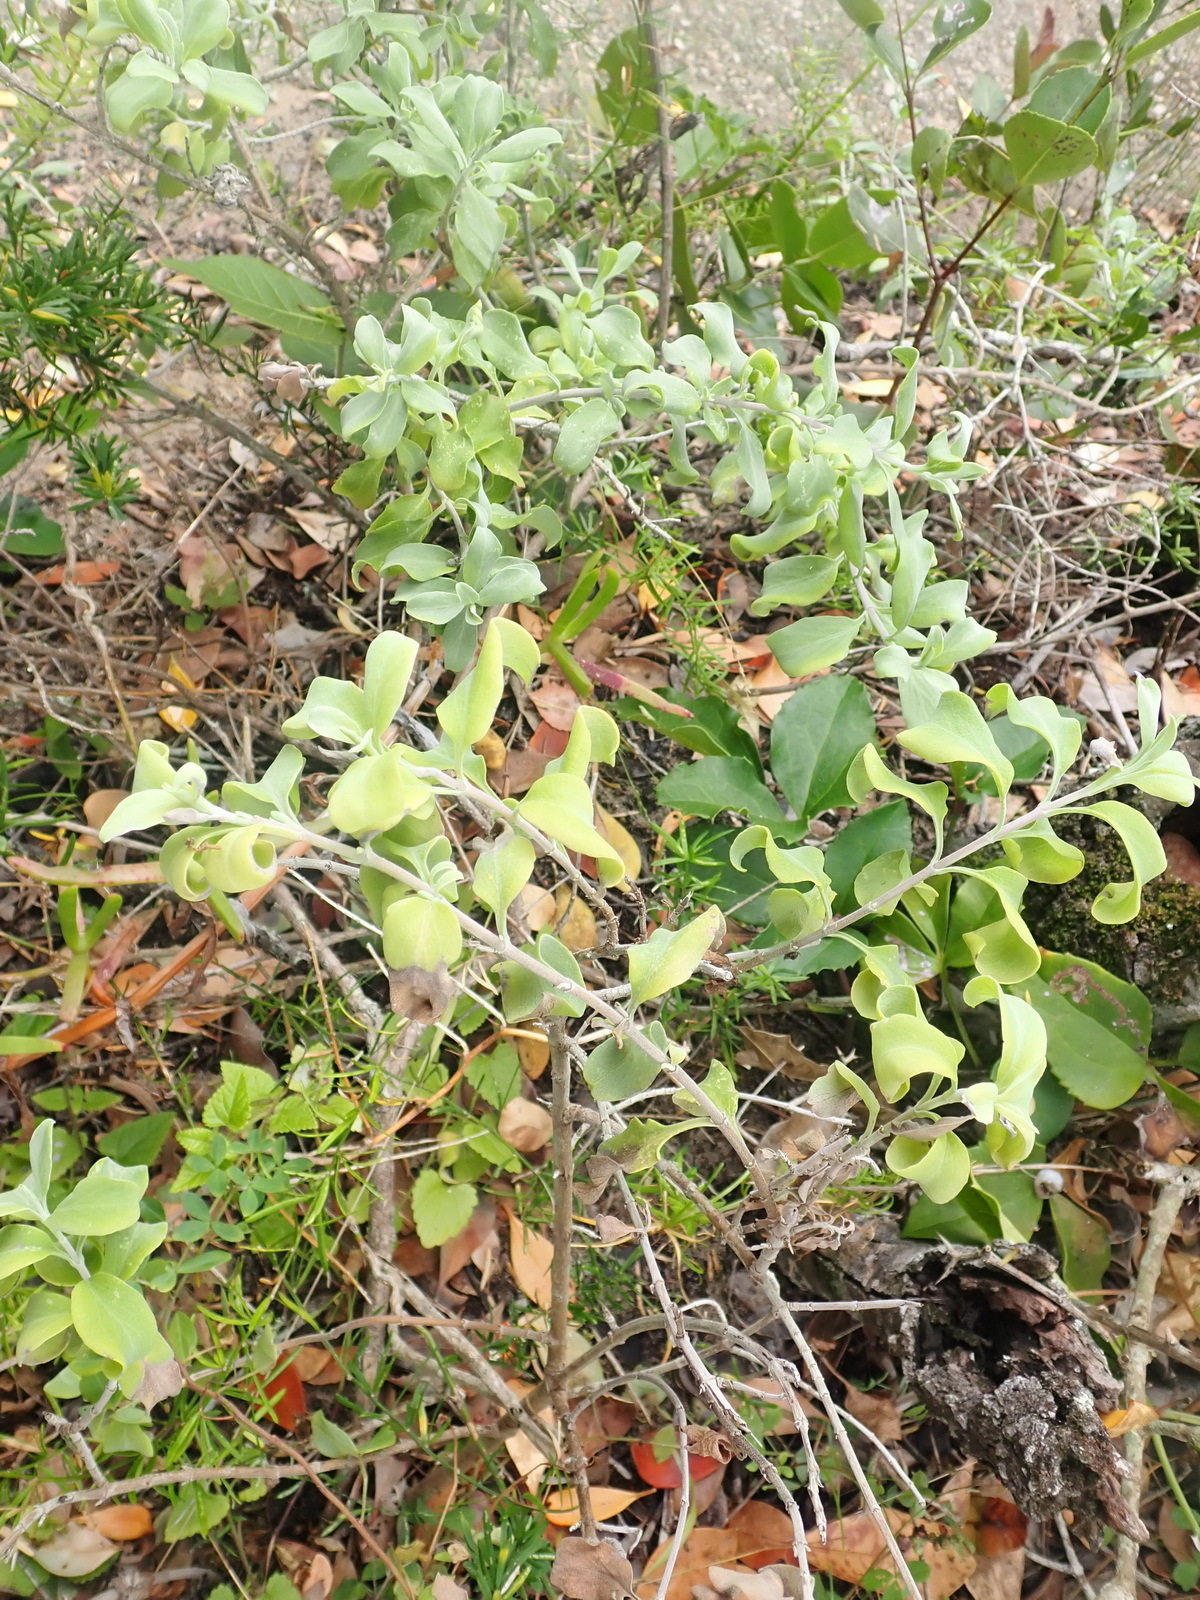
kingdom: Plantae
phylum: Tracheophyta
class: Magnoliopsida
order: Lamiales
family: Lamiaceae
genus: Salvia
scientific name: Salvia aurea
